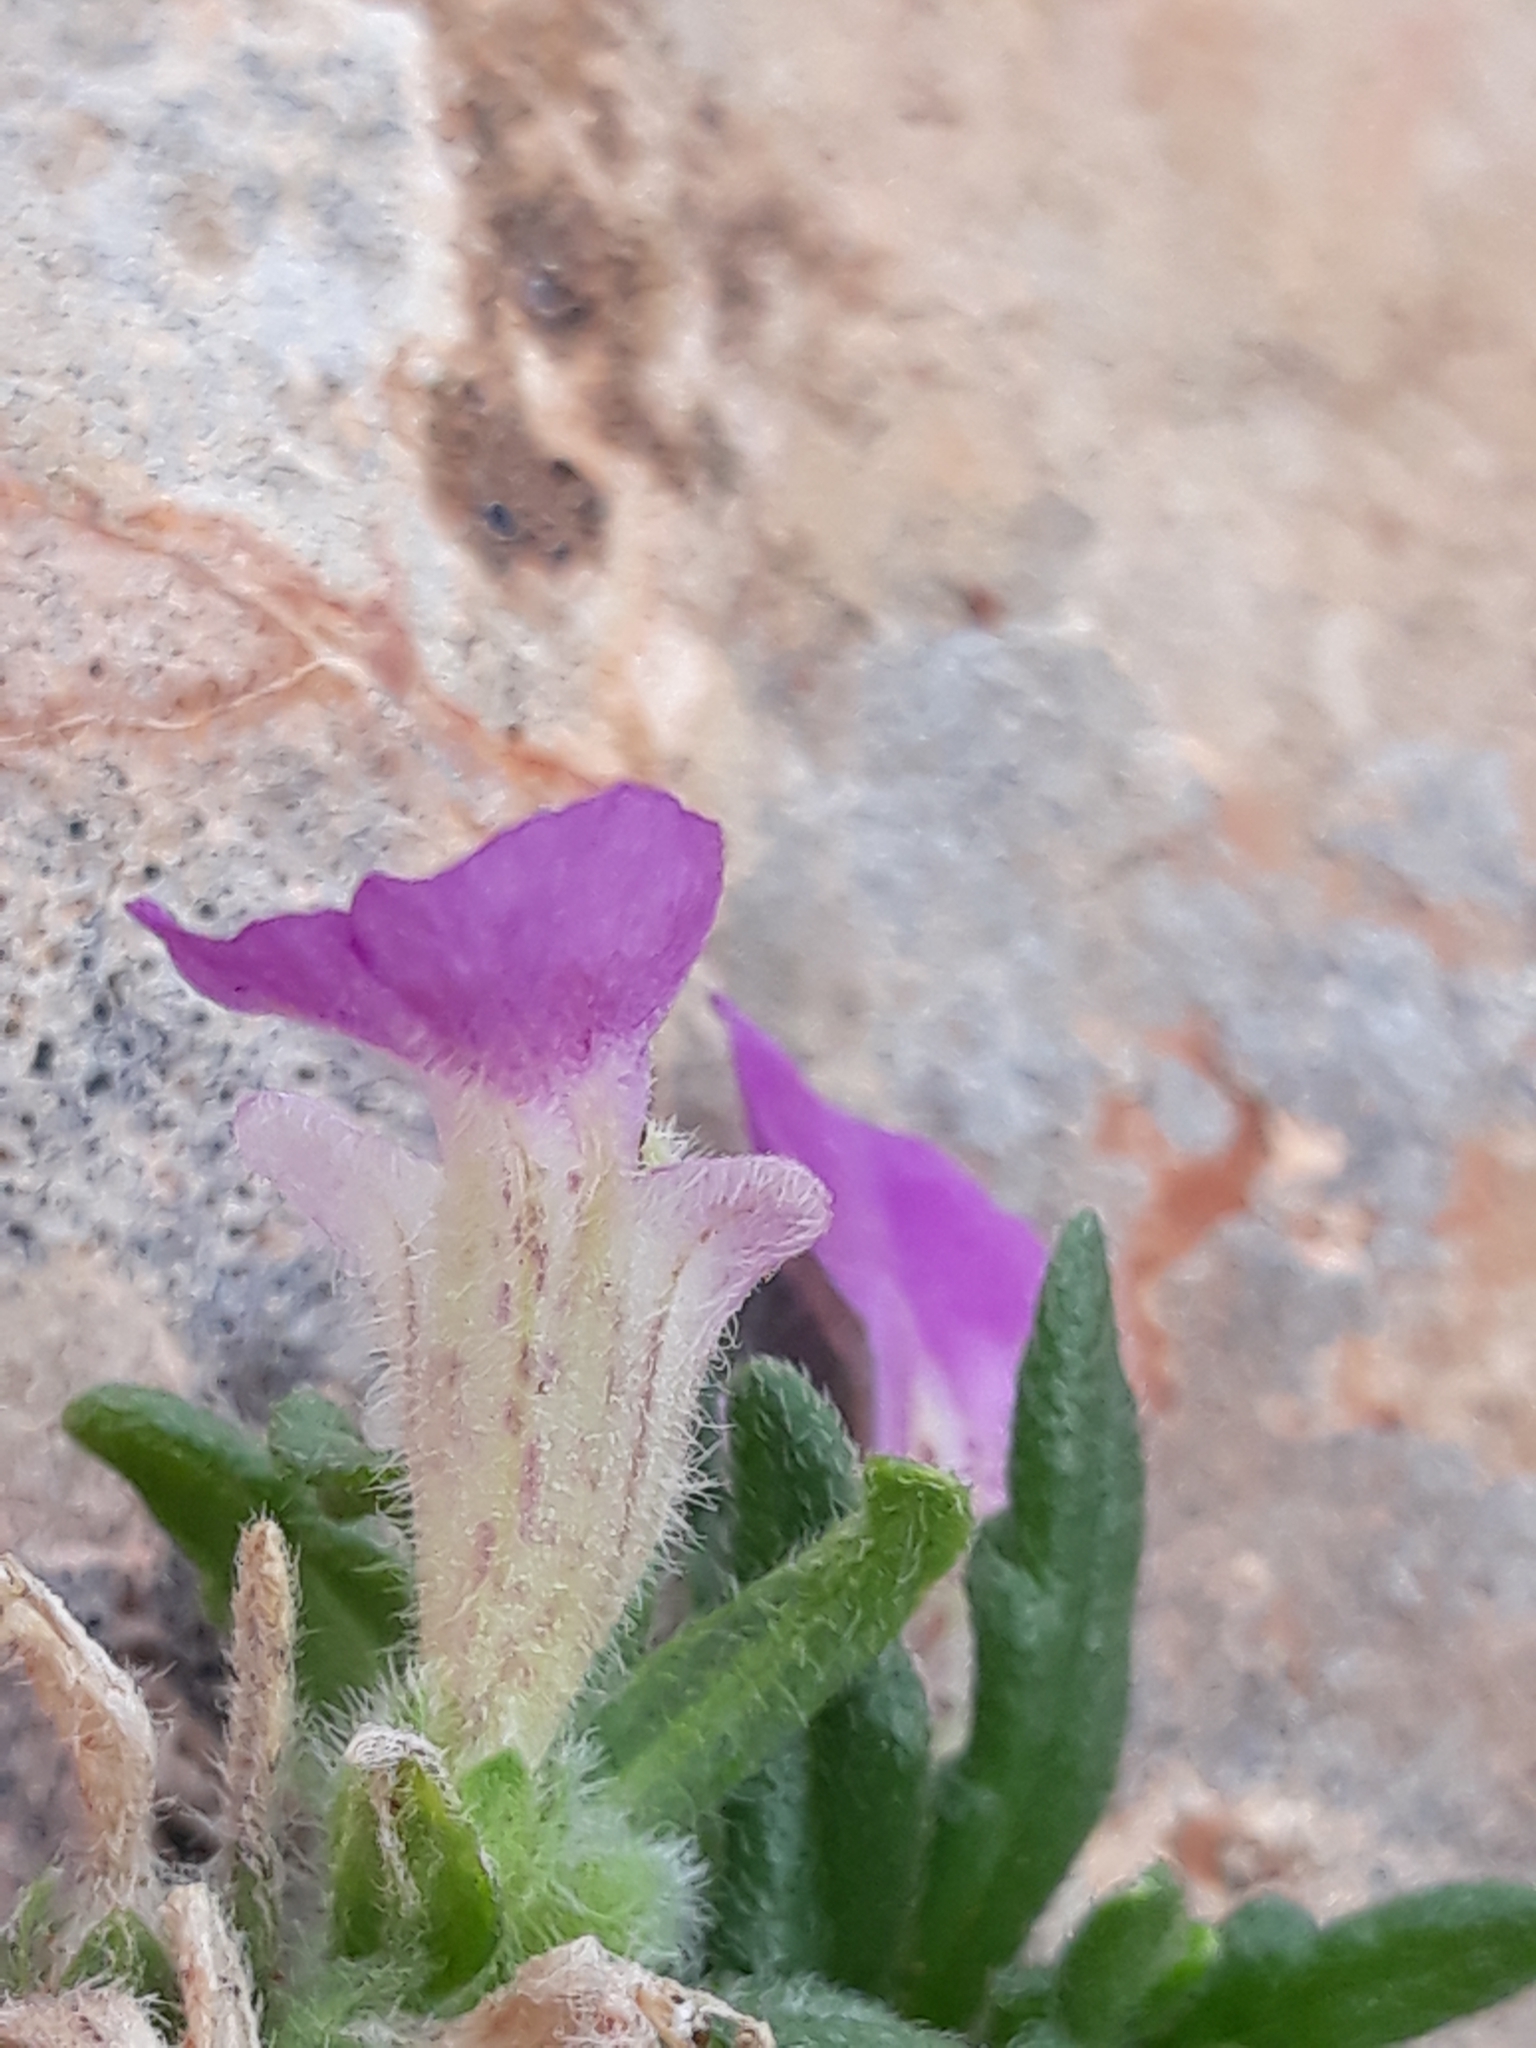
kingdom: Plantae
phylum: Tracheophyta
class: Magnoliopsida
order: Lamiales
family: Lamiaceae
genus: Ajuga
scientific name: Ajuga iva
